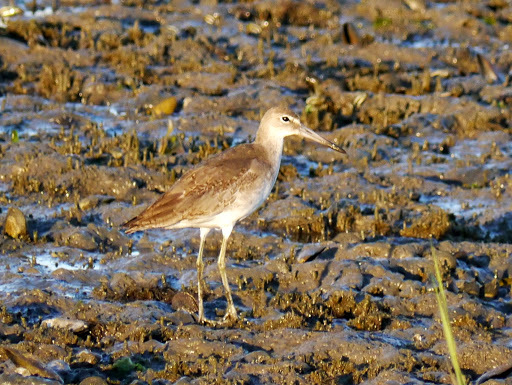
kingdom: Animalia
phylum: Chordata
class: Aves
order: Charadriiformes
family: Scolopacidae
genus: Tringa
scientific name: Tringa semipalmata
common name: Willet
